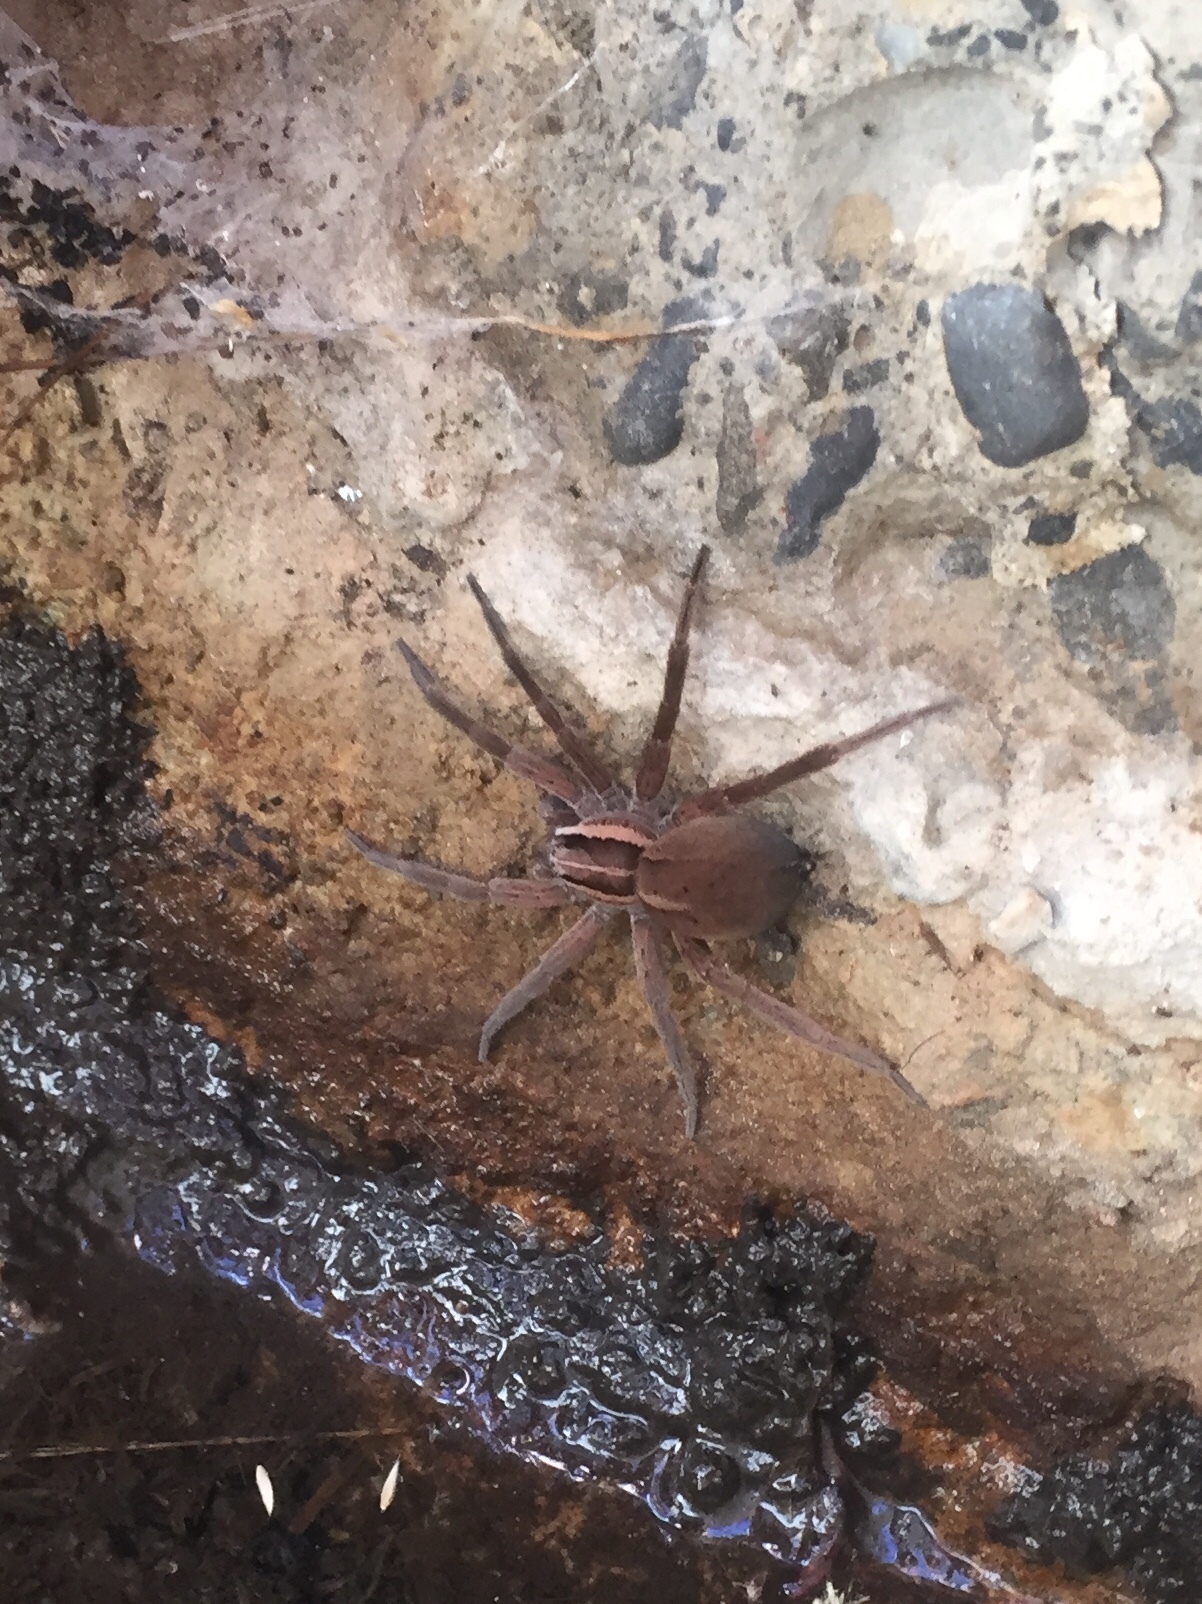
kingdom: Animalia
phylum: Arthropoda
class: Arachnida
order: Araneae
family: Pisauridae
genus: Dolomedes
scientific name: Dolomedes minor
